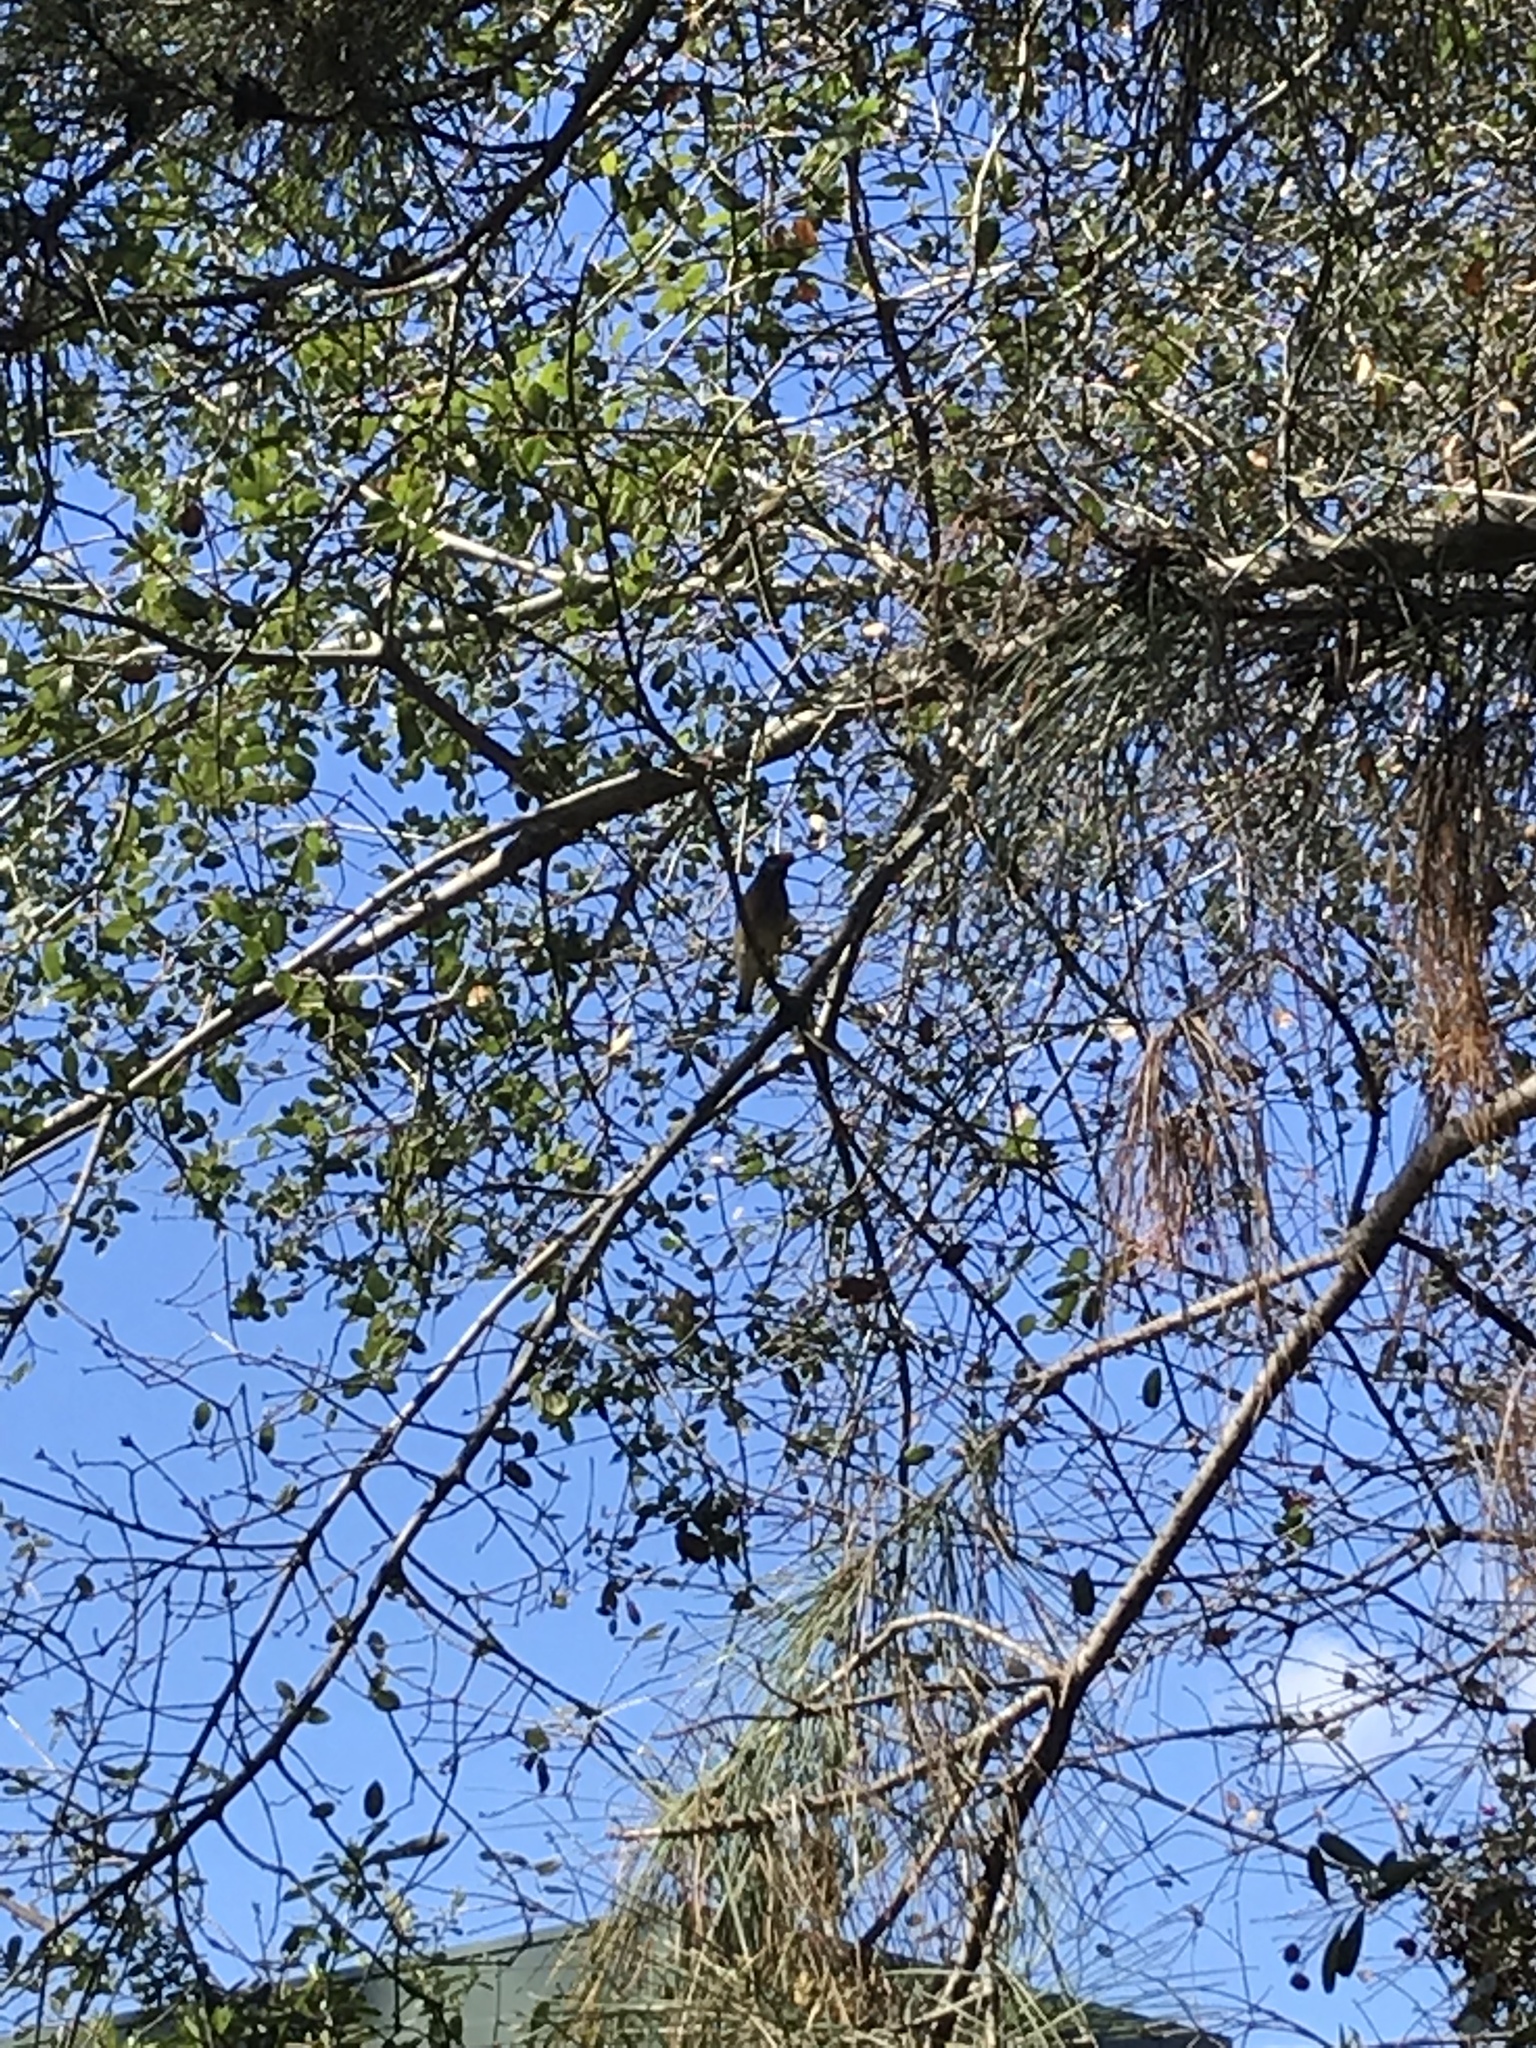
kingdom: Animalia
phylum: Chordata
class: Aves
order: Passeriformes
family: Bombycillidae
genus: Bombycilla
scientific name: Bombycilla cedrorum
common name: Cedar waxwing
